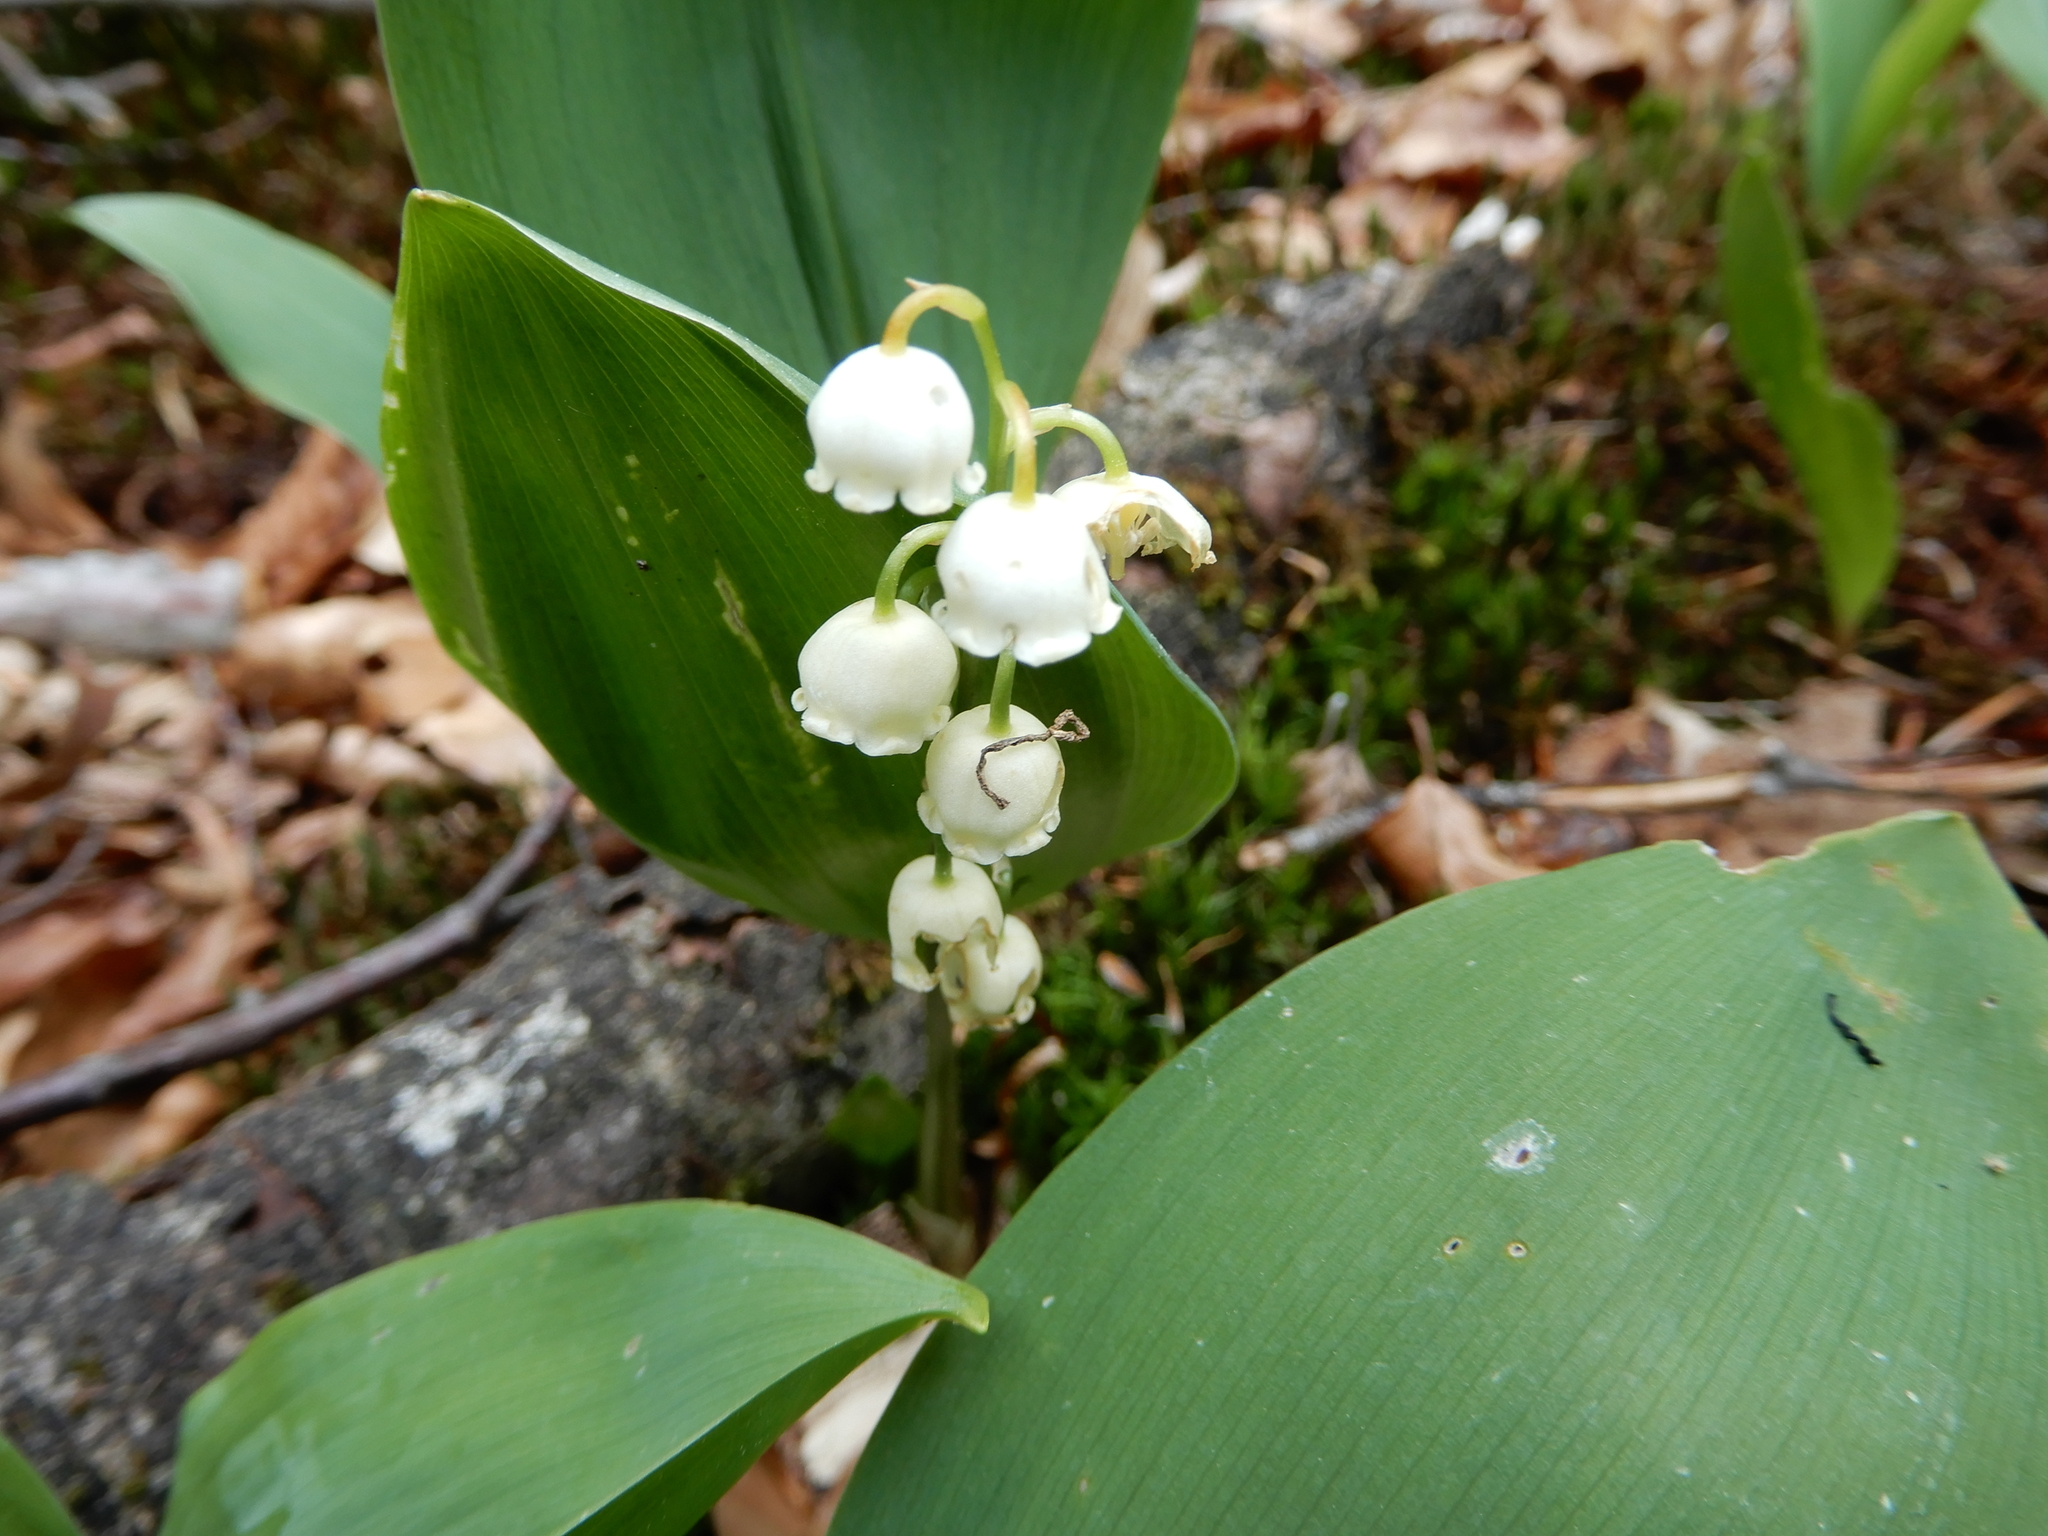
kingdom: Plantae
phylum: Tracheophyta
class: Liliopsida
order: Asparagales
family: Asparagaceae
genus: Convallaria
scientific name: Convallaria majalis
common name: Lily-of-the-valley
